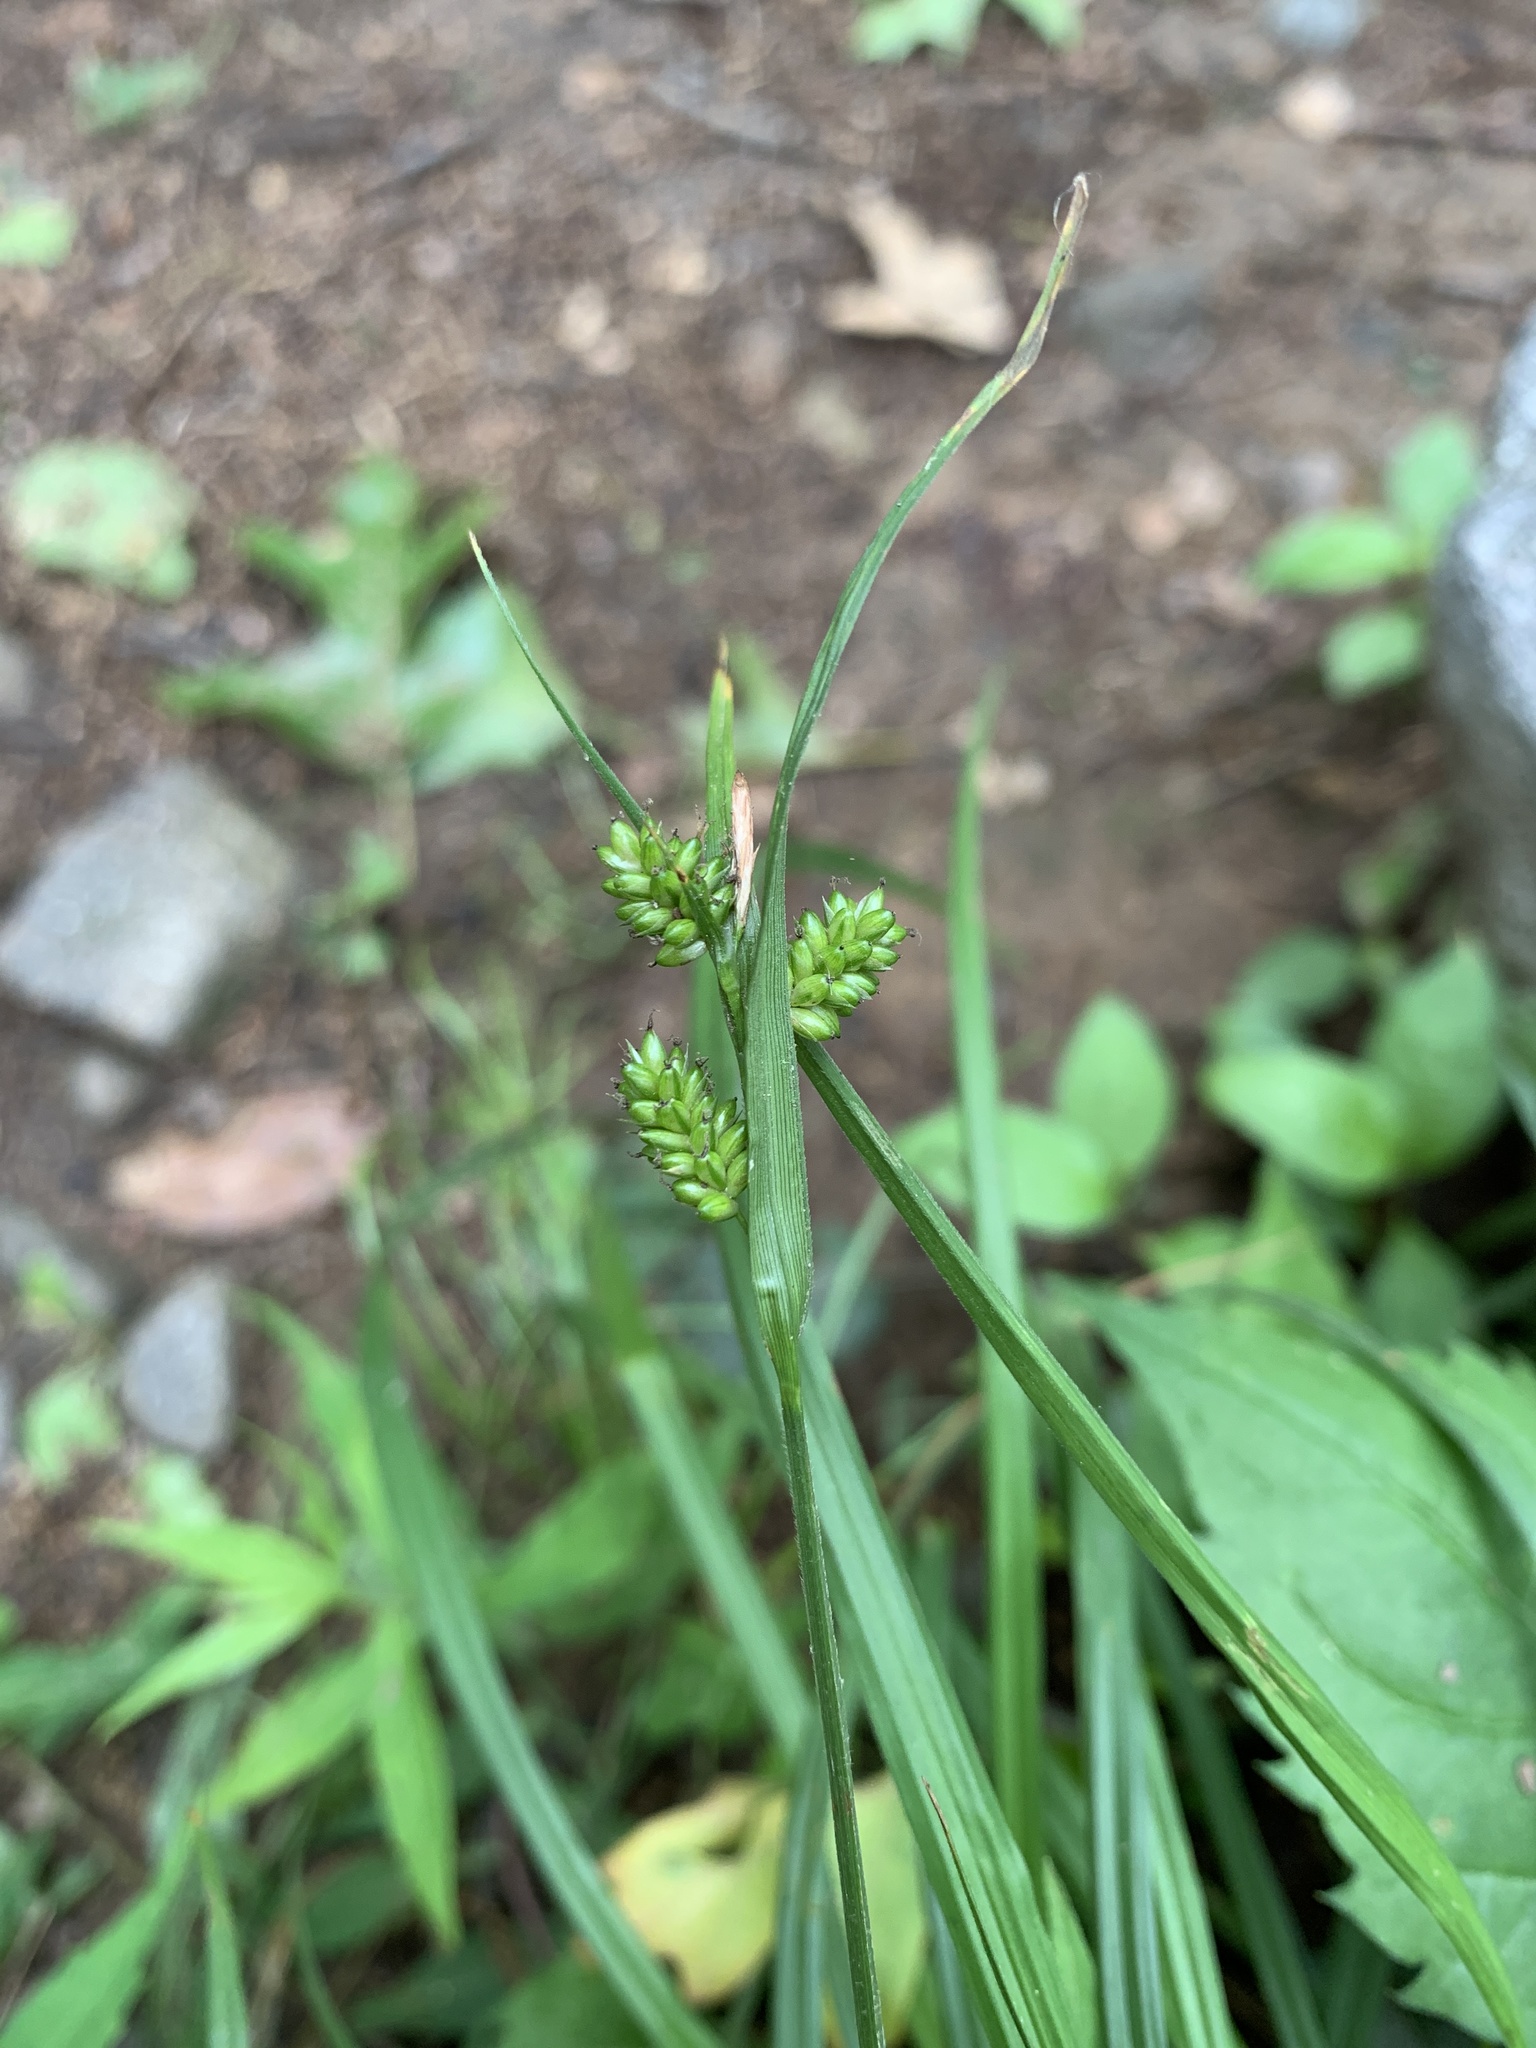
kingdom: Plantae
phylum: Tracheophyta
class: Liliopsida
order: Poales
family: Cyperaceae
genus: Carex
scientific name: Carex pallescens
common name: Pale sedge
